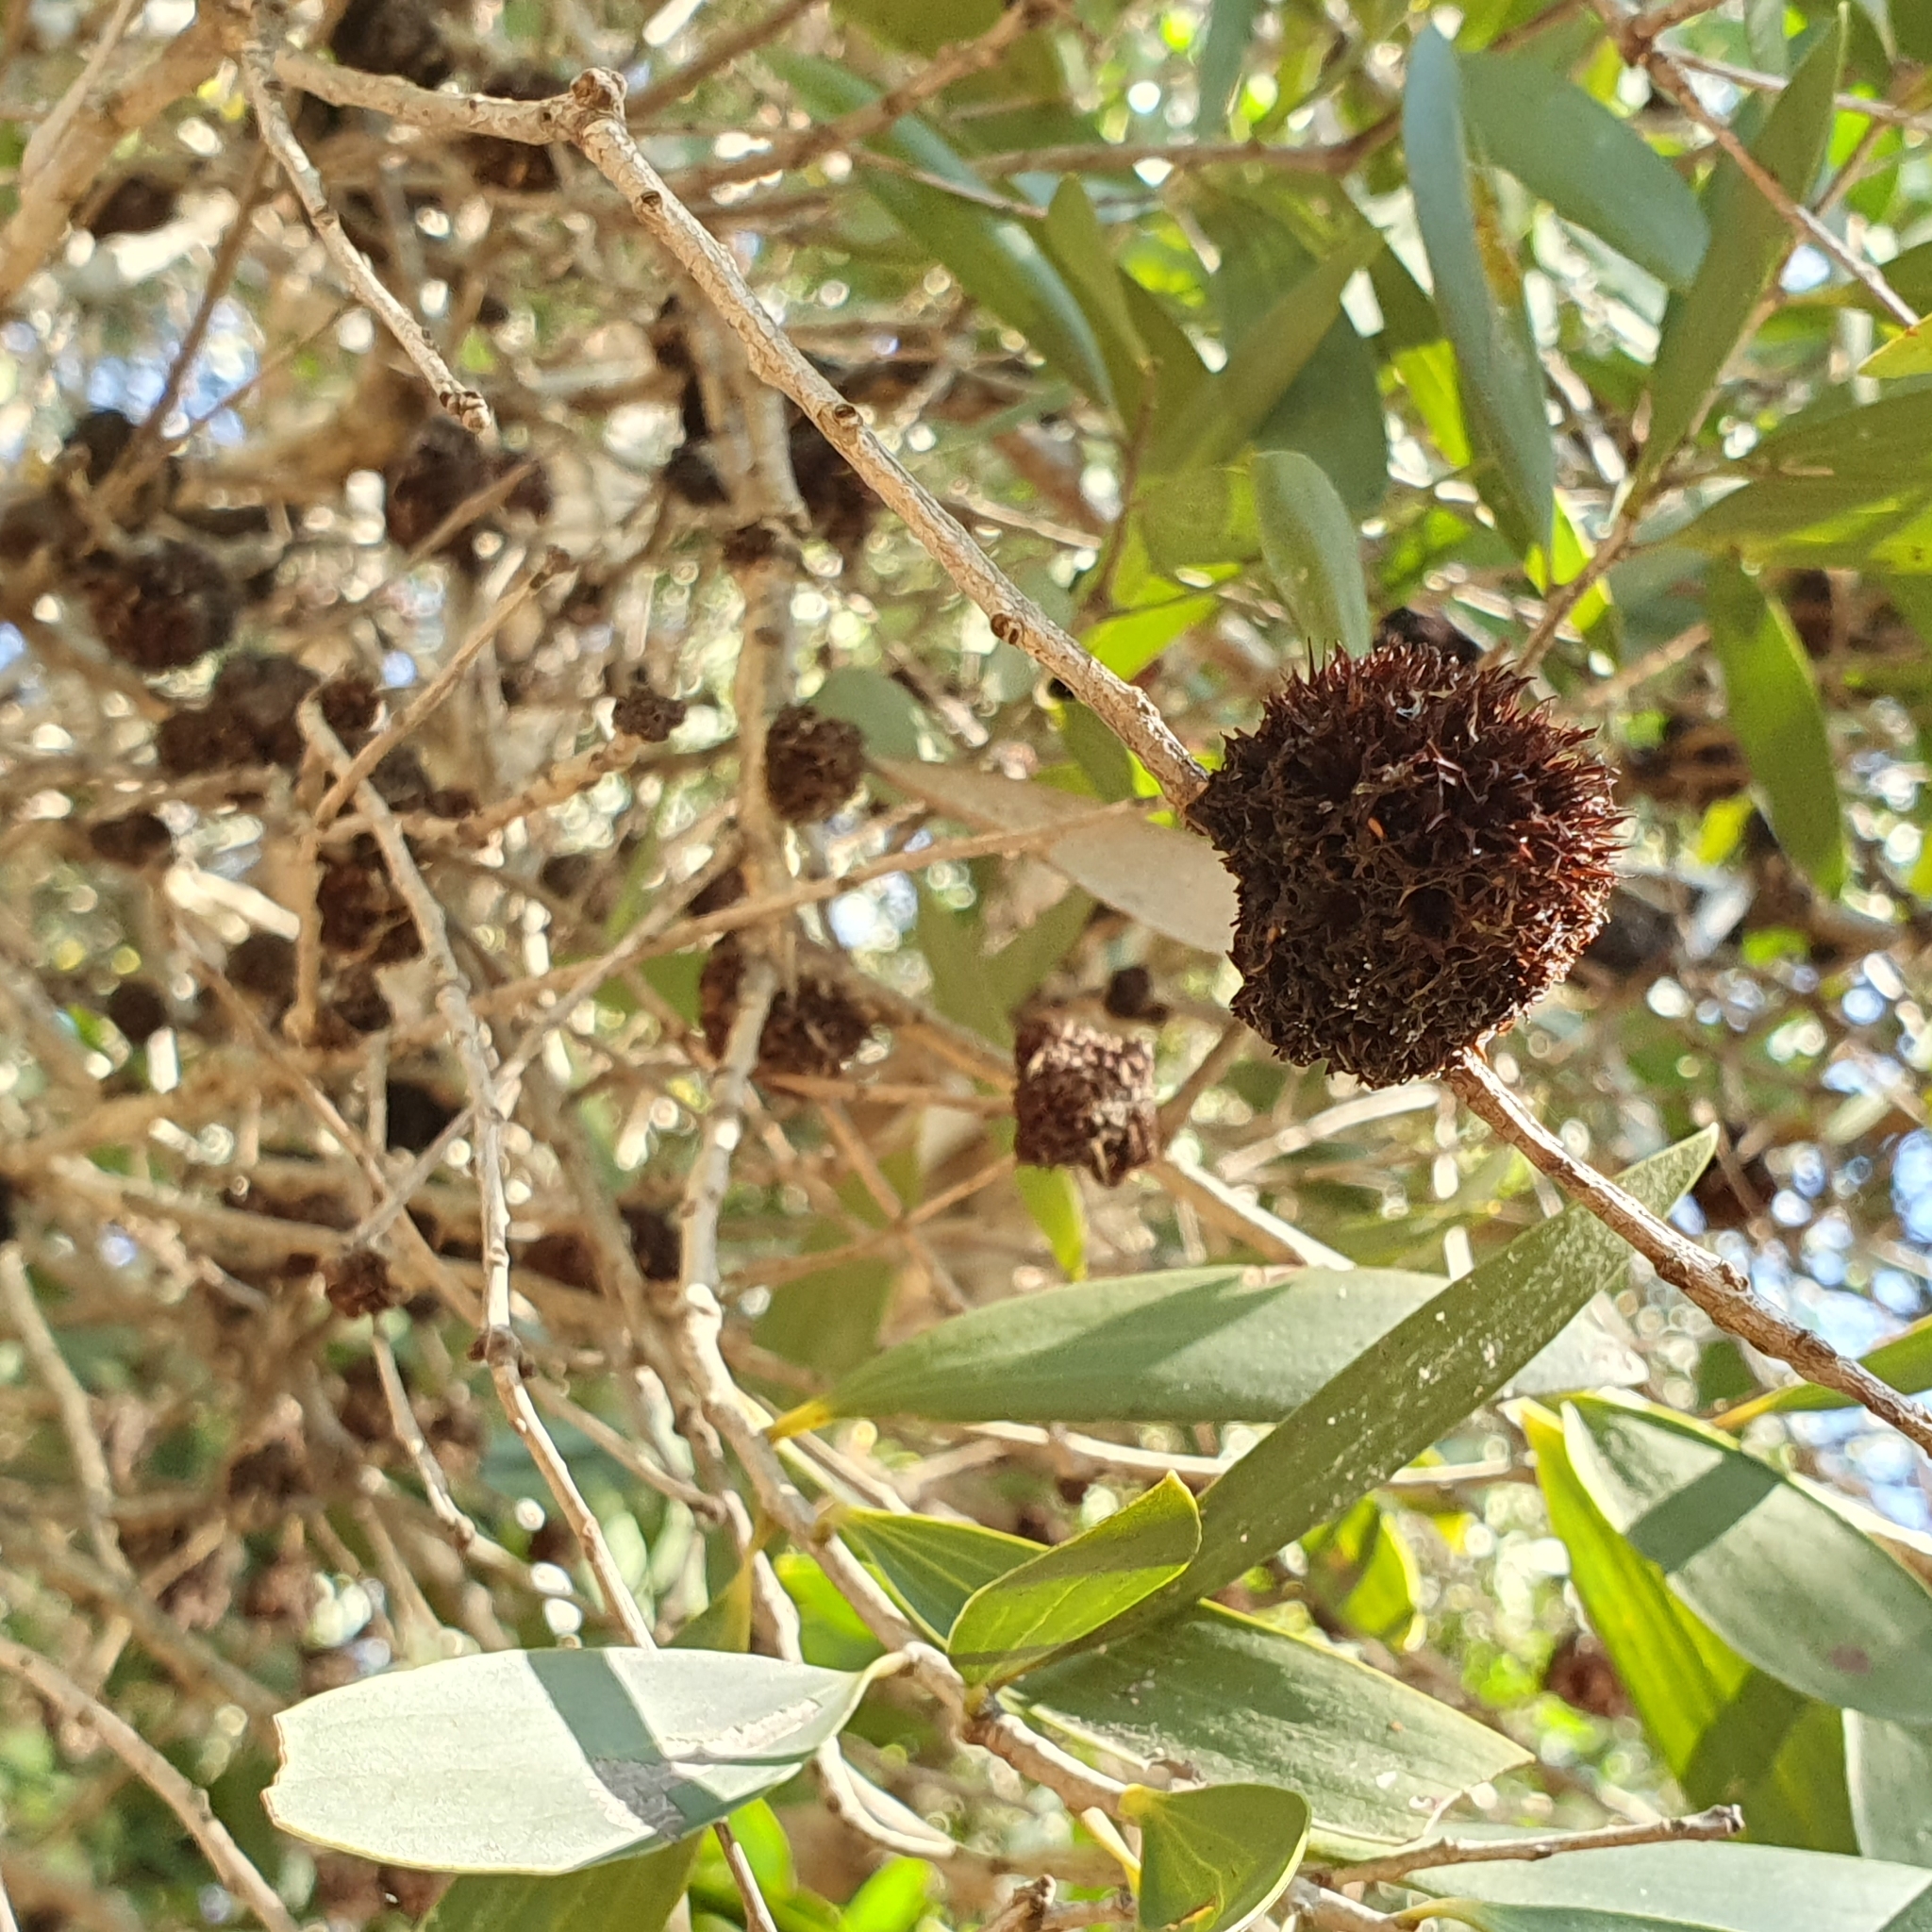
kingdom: Animalia
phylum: Arthropoda
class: Insecta
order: Hemiptera
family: Beesoniidae
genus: Beesonia
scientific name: Beesonia ferrugineus
